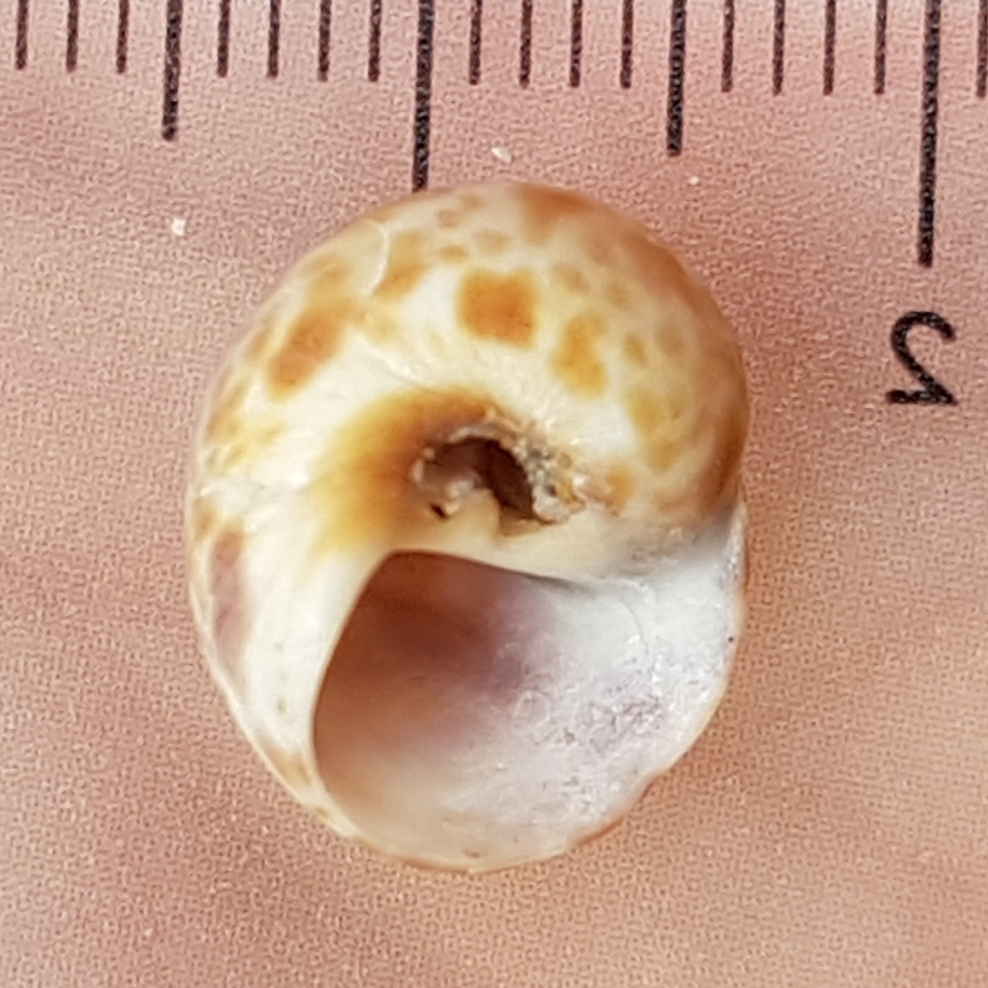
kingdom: Animalia
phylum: Mollusca
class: Gastropoda
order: Littorinimorpha
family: Naticidae
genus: Naticarius
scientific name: Naticarius hebraeus
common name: Hebrew moon shell
